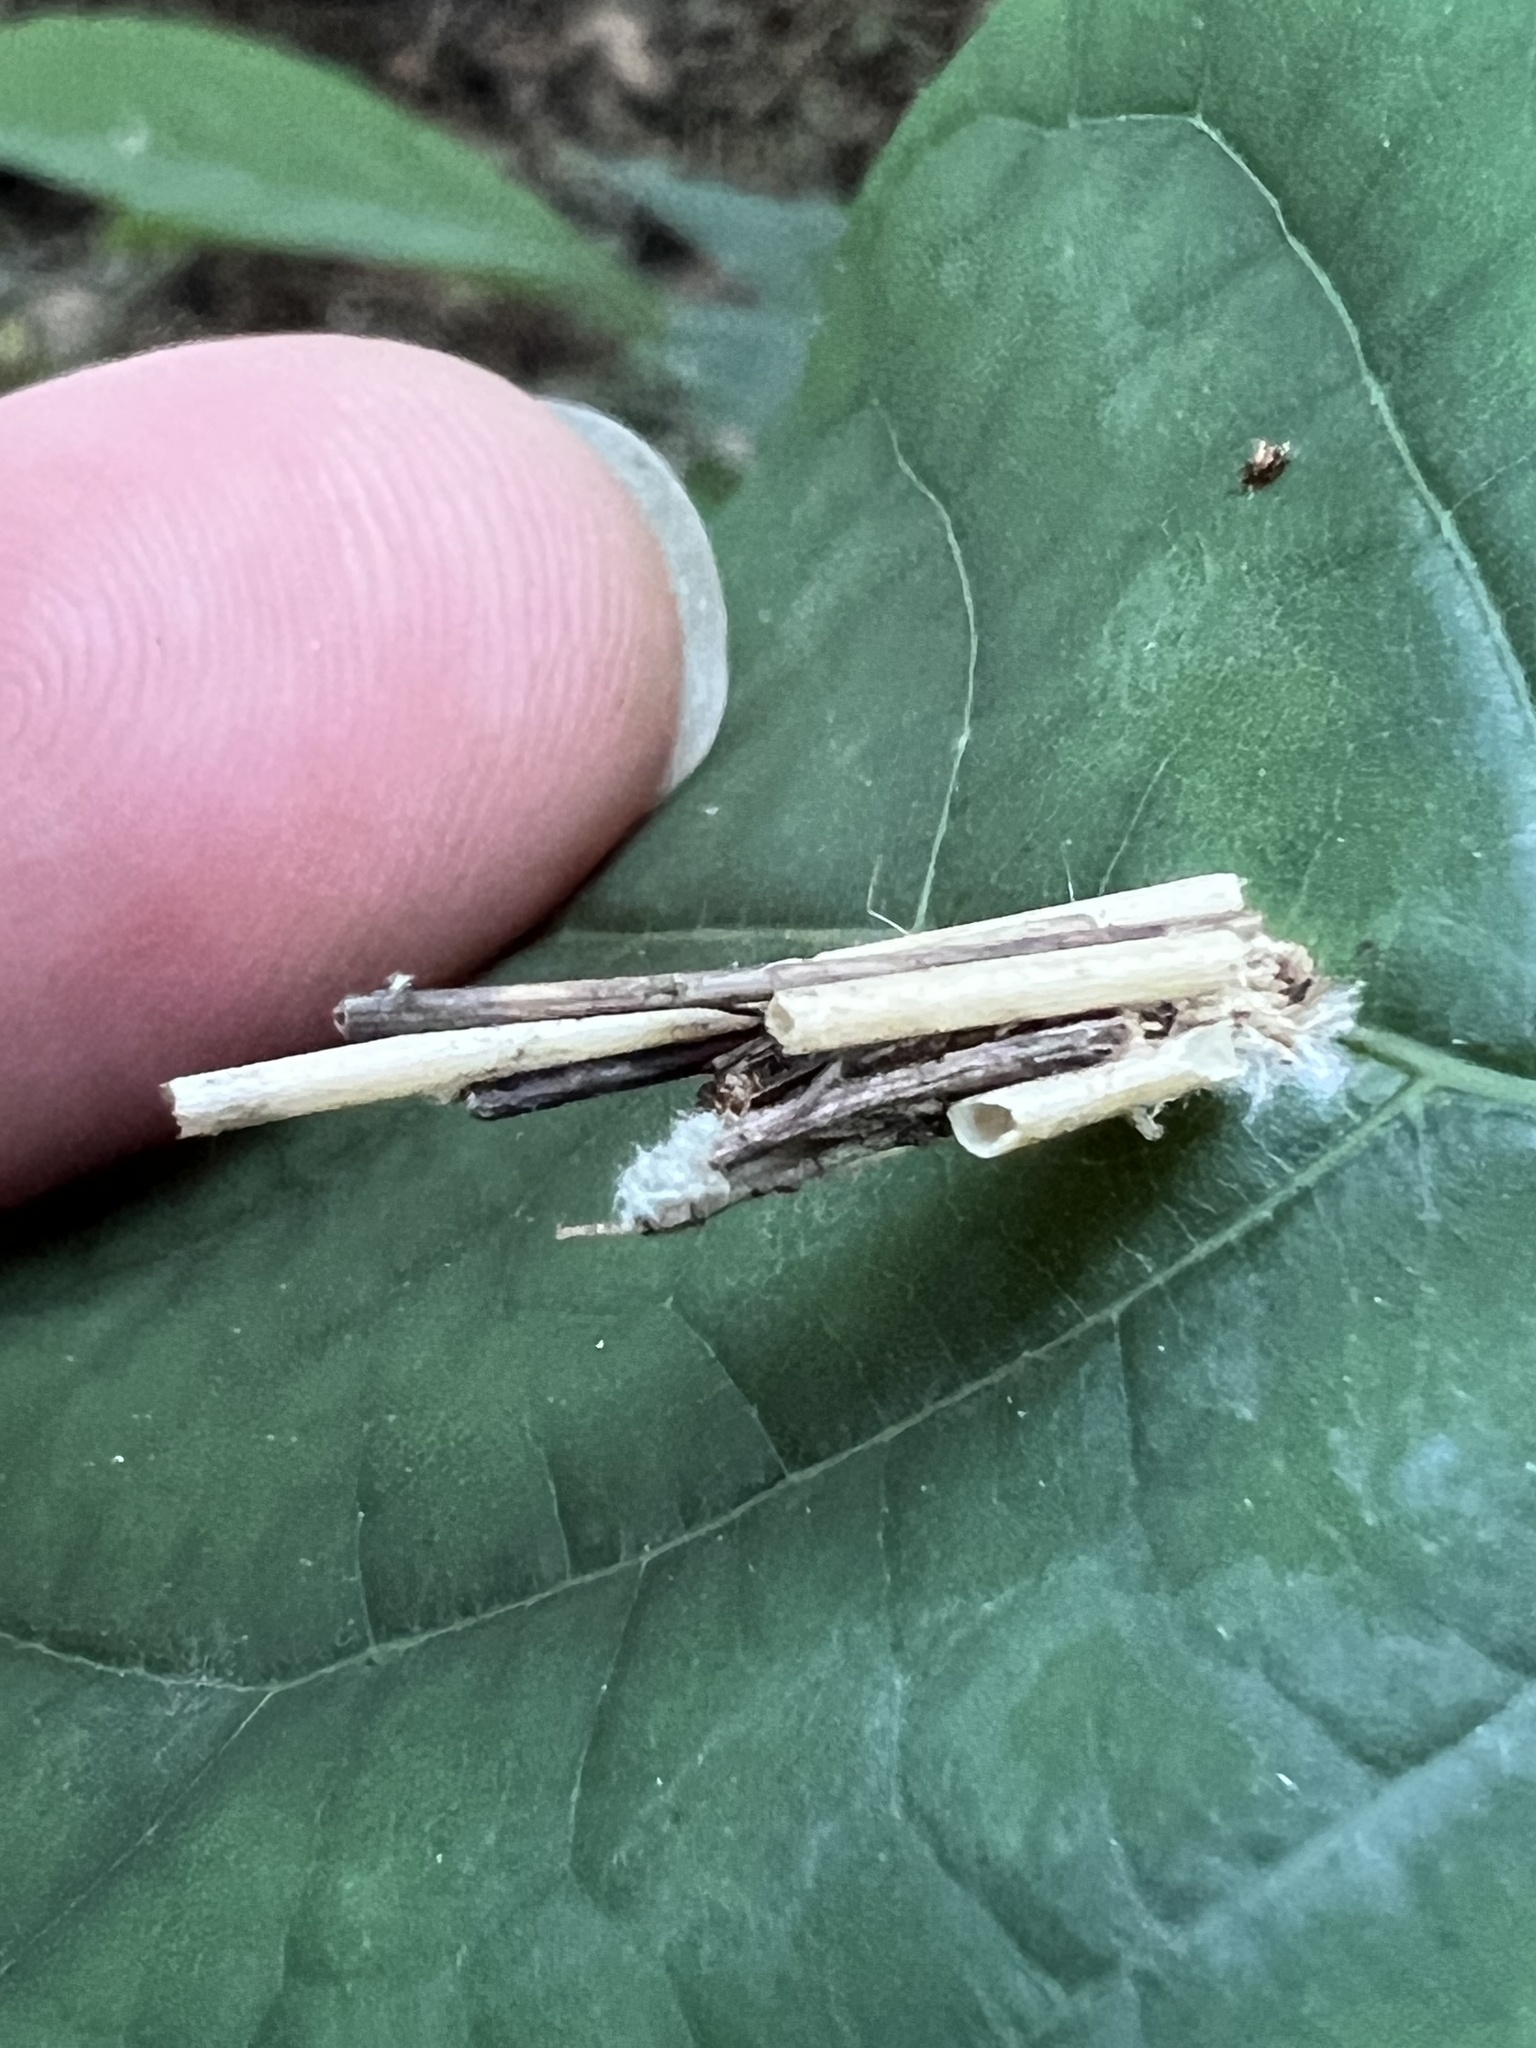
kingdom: Animalia
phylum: Arthropoda
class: Insecta
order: Lepidoptera
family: Psychidae
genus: Psyche
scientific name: Psyche casta
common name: Common sweep
